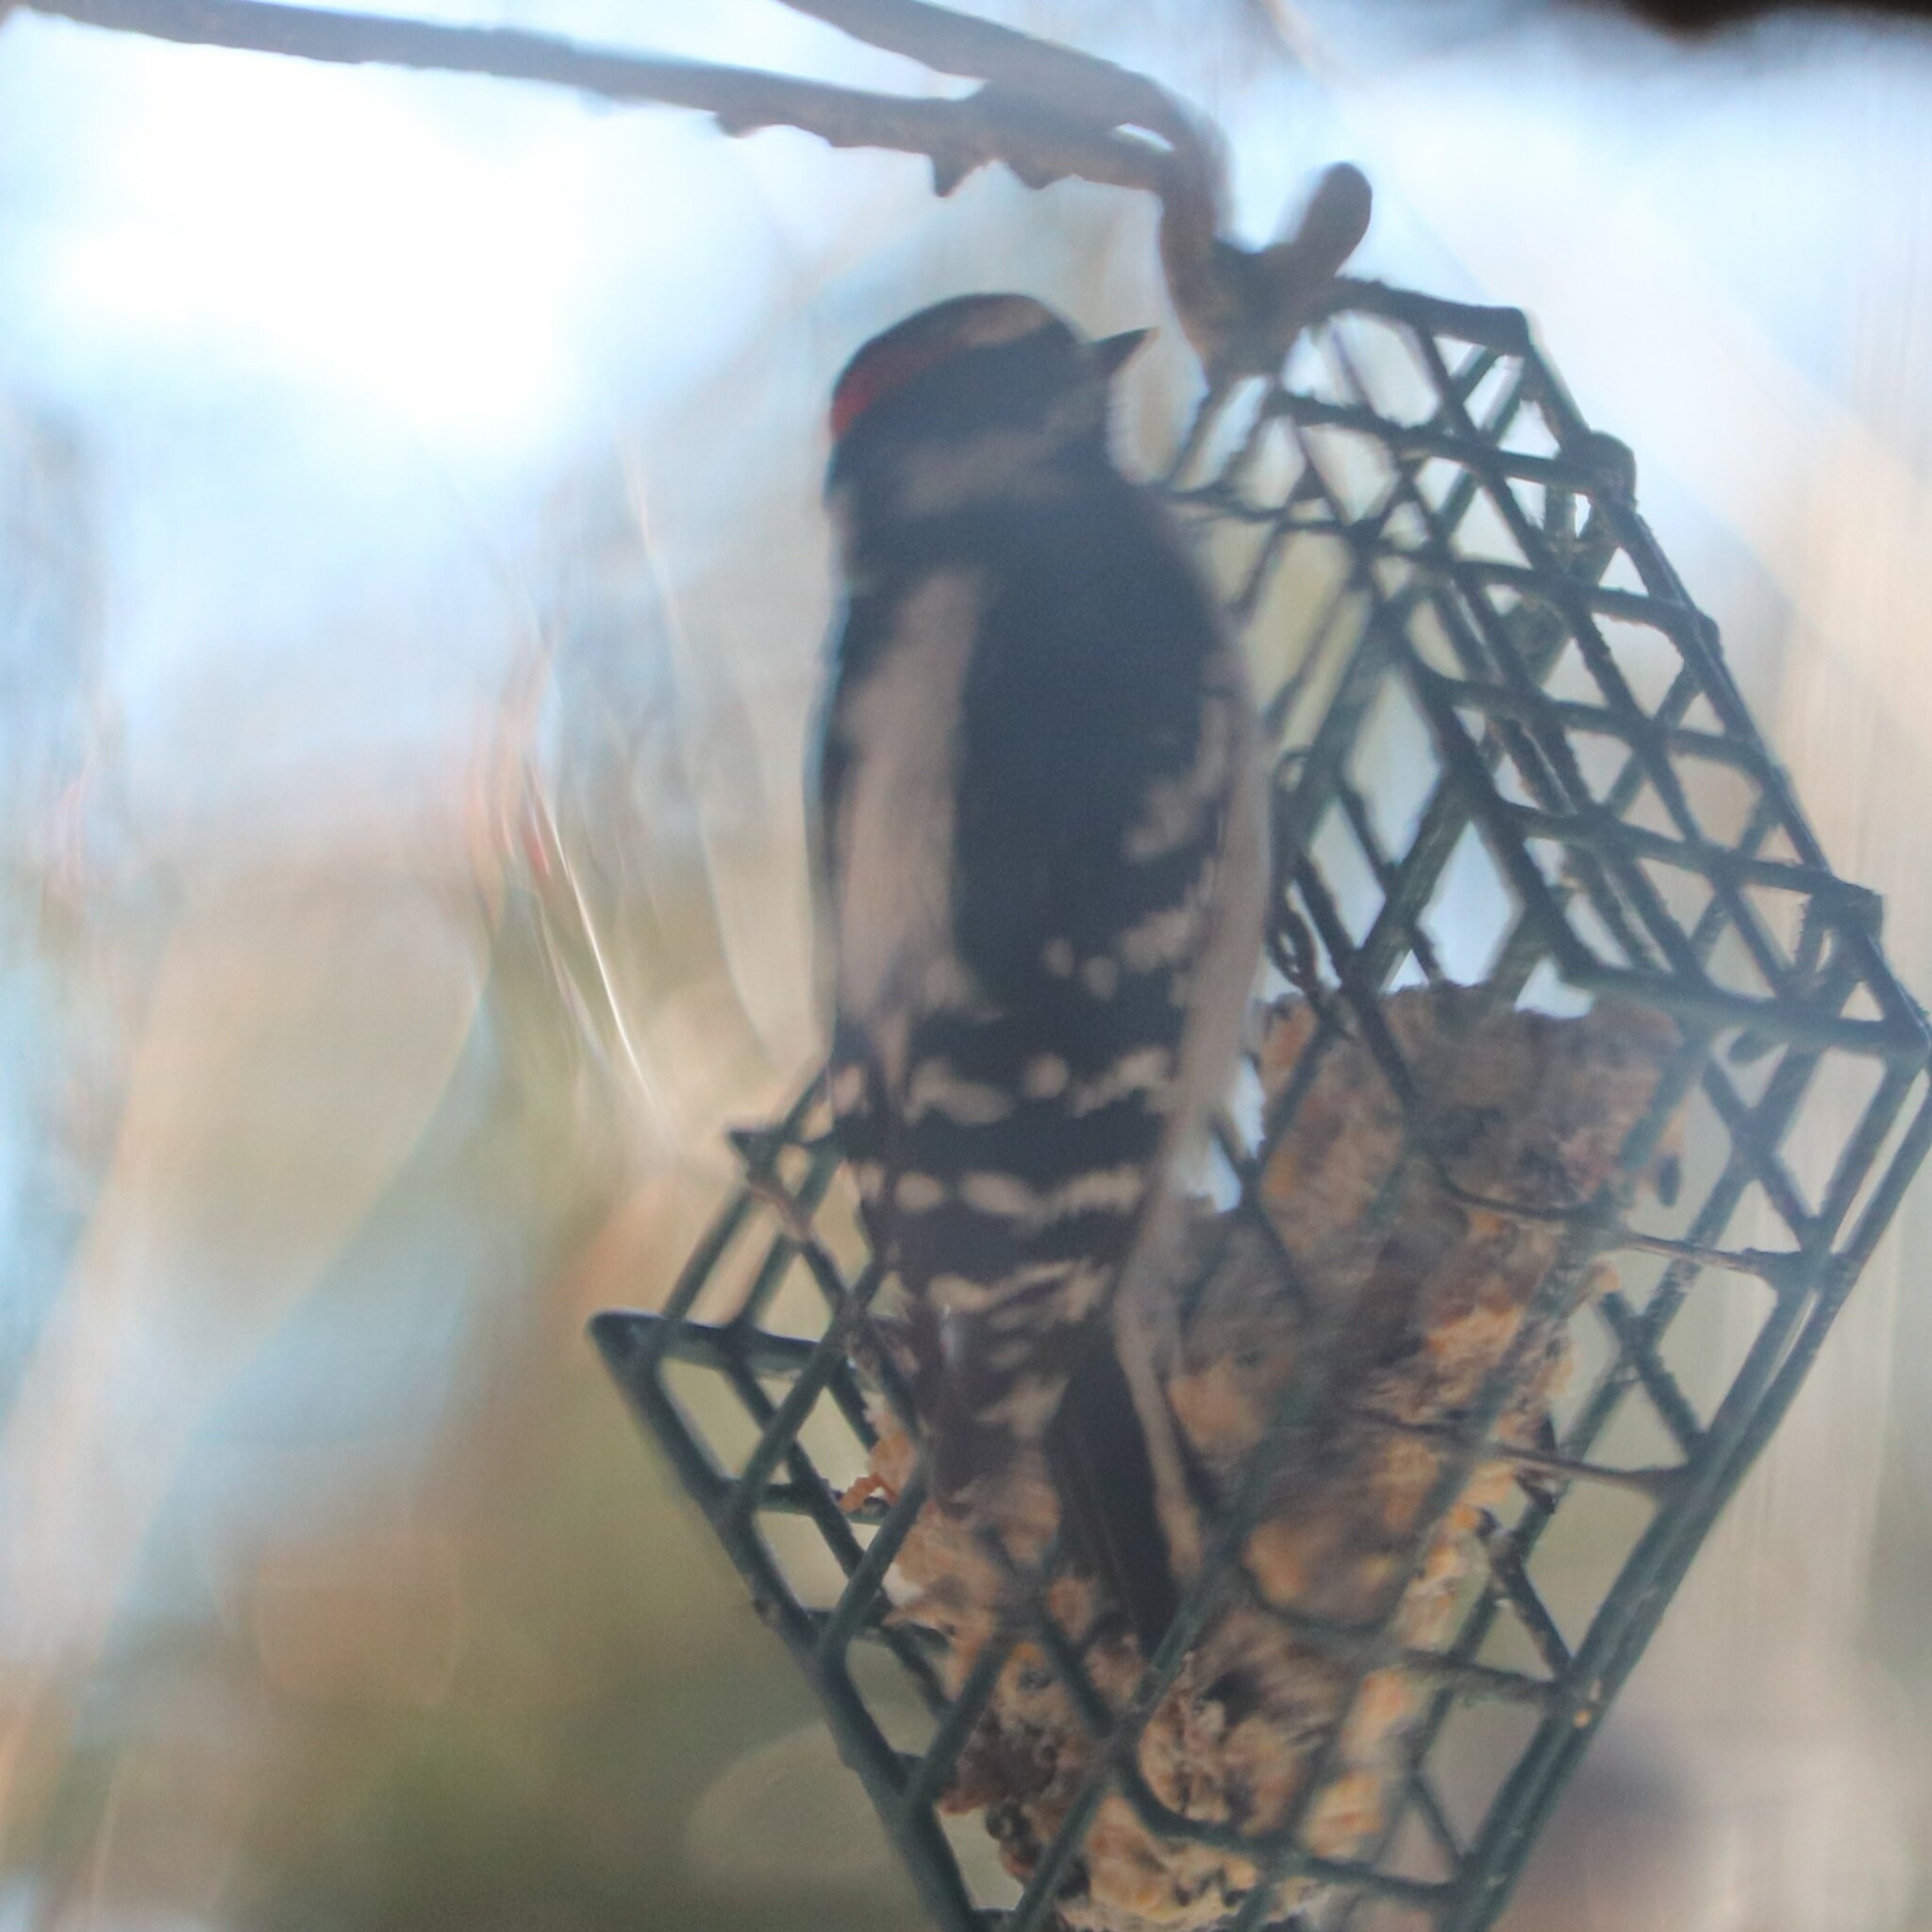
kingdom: Animalia
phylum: Chordata
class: Aves
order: Piciformes
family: Picidae
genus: Dryobates
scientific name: Dryobates pubescens
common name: Downy woodpecker
